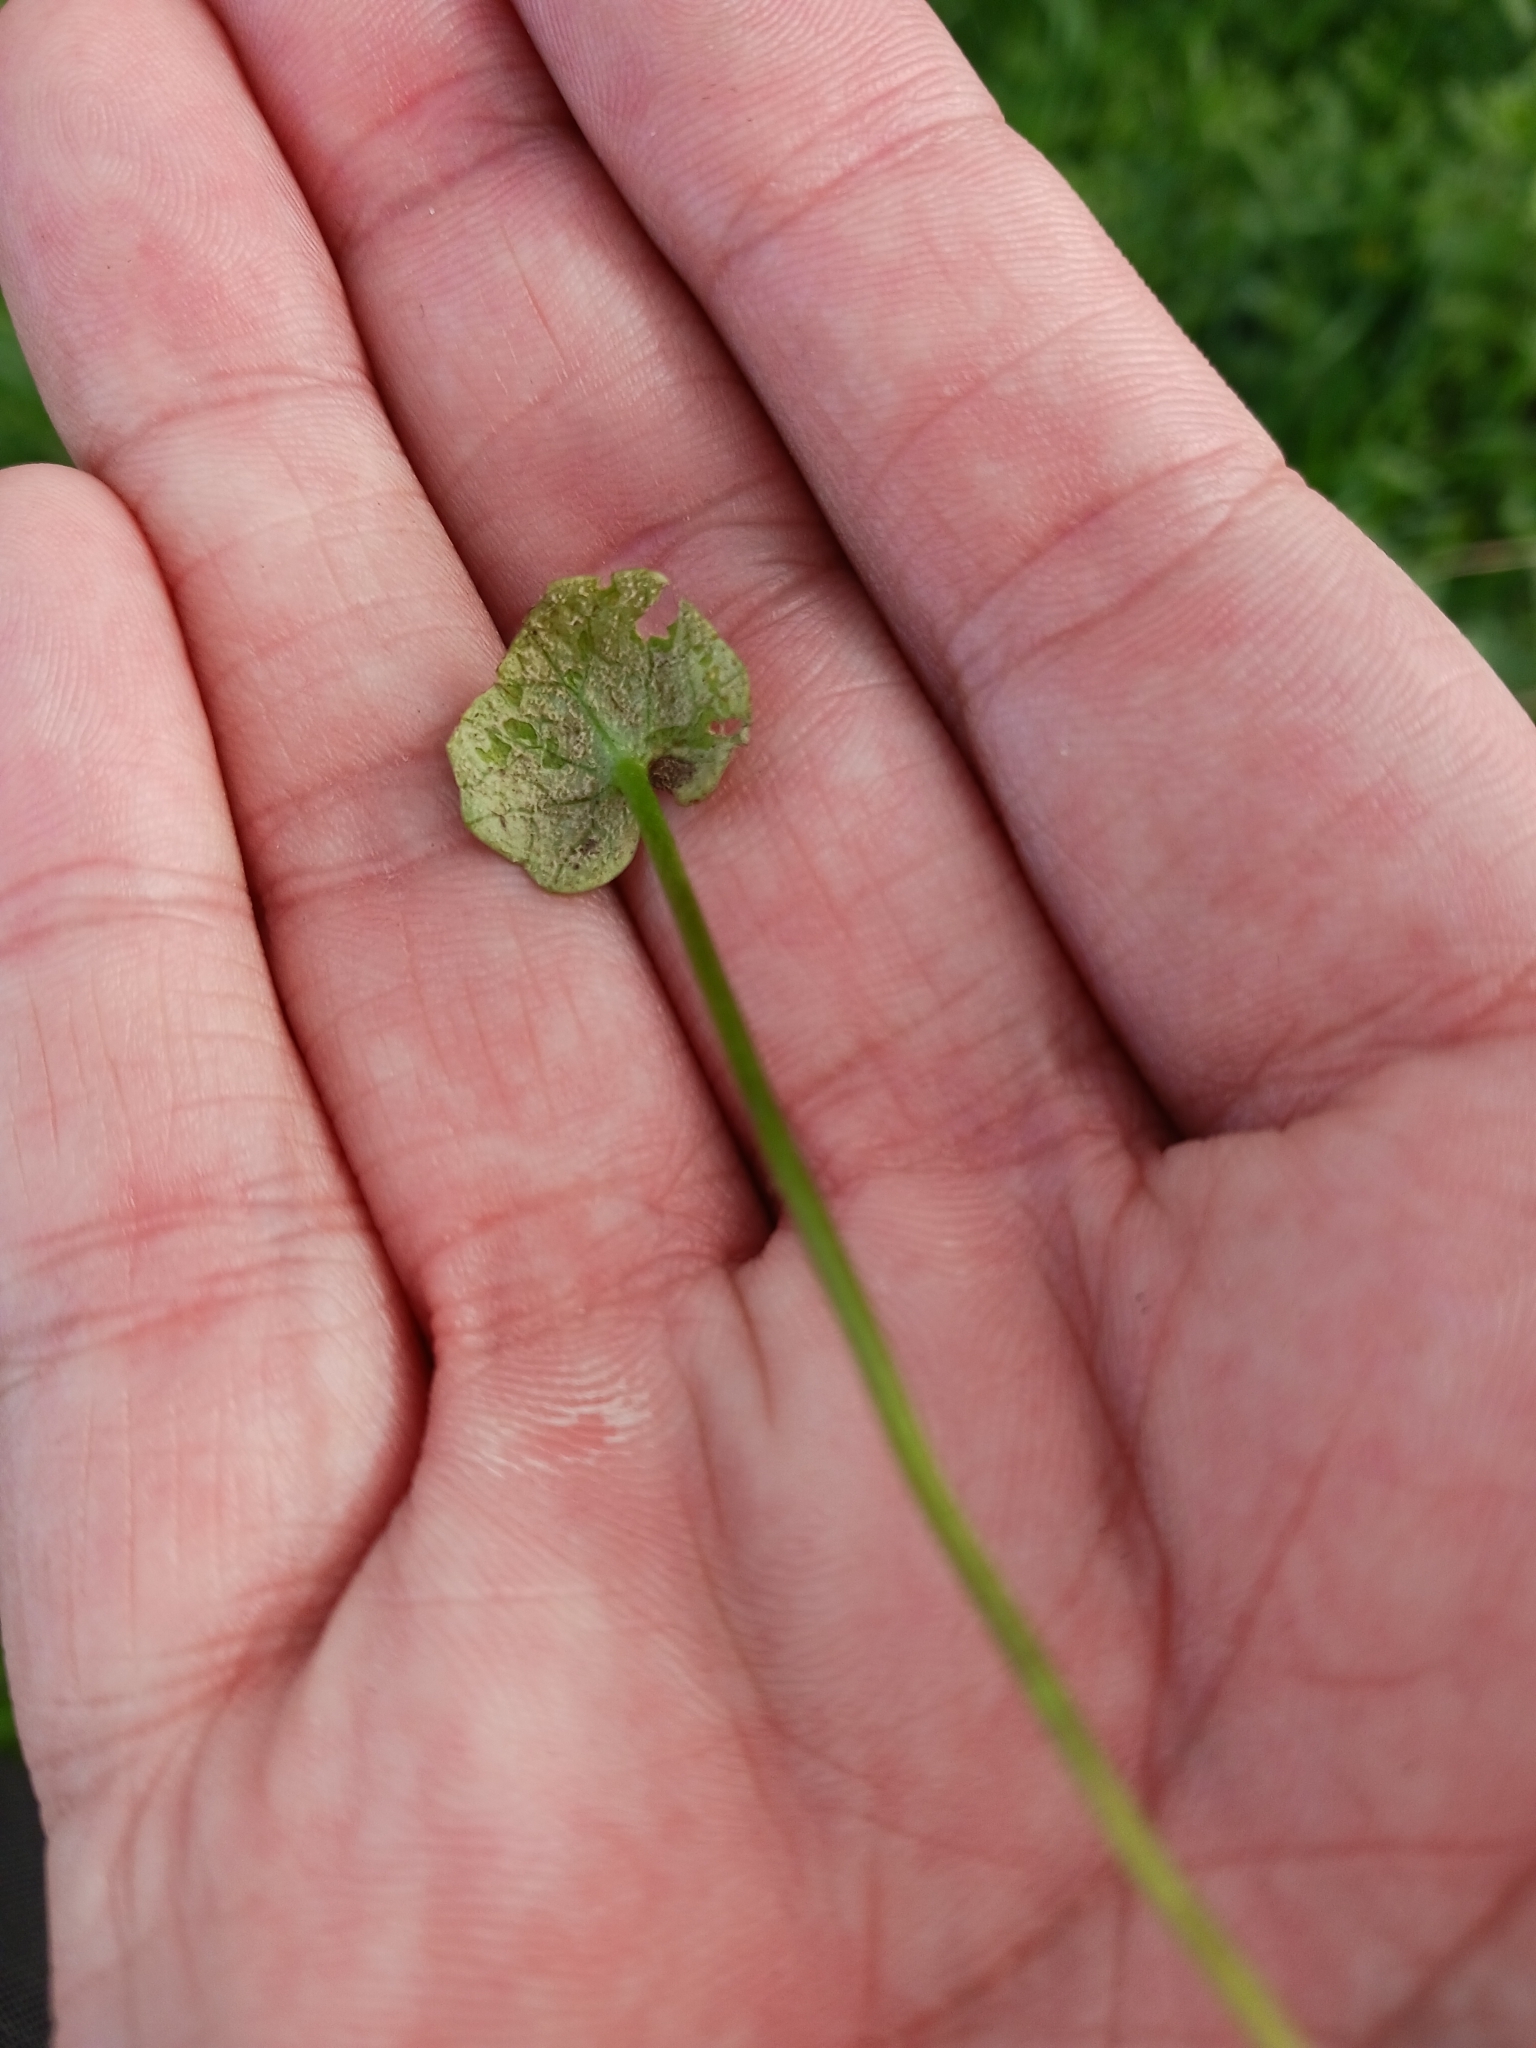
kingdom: Chromista
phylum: Oomycota
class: Peronosporea
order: Peronosporales
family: Peronosporaceae
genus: Peronospora
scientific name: Peronospora ficariae
